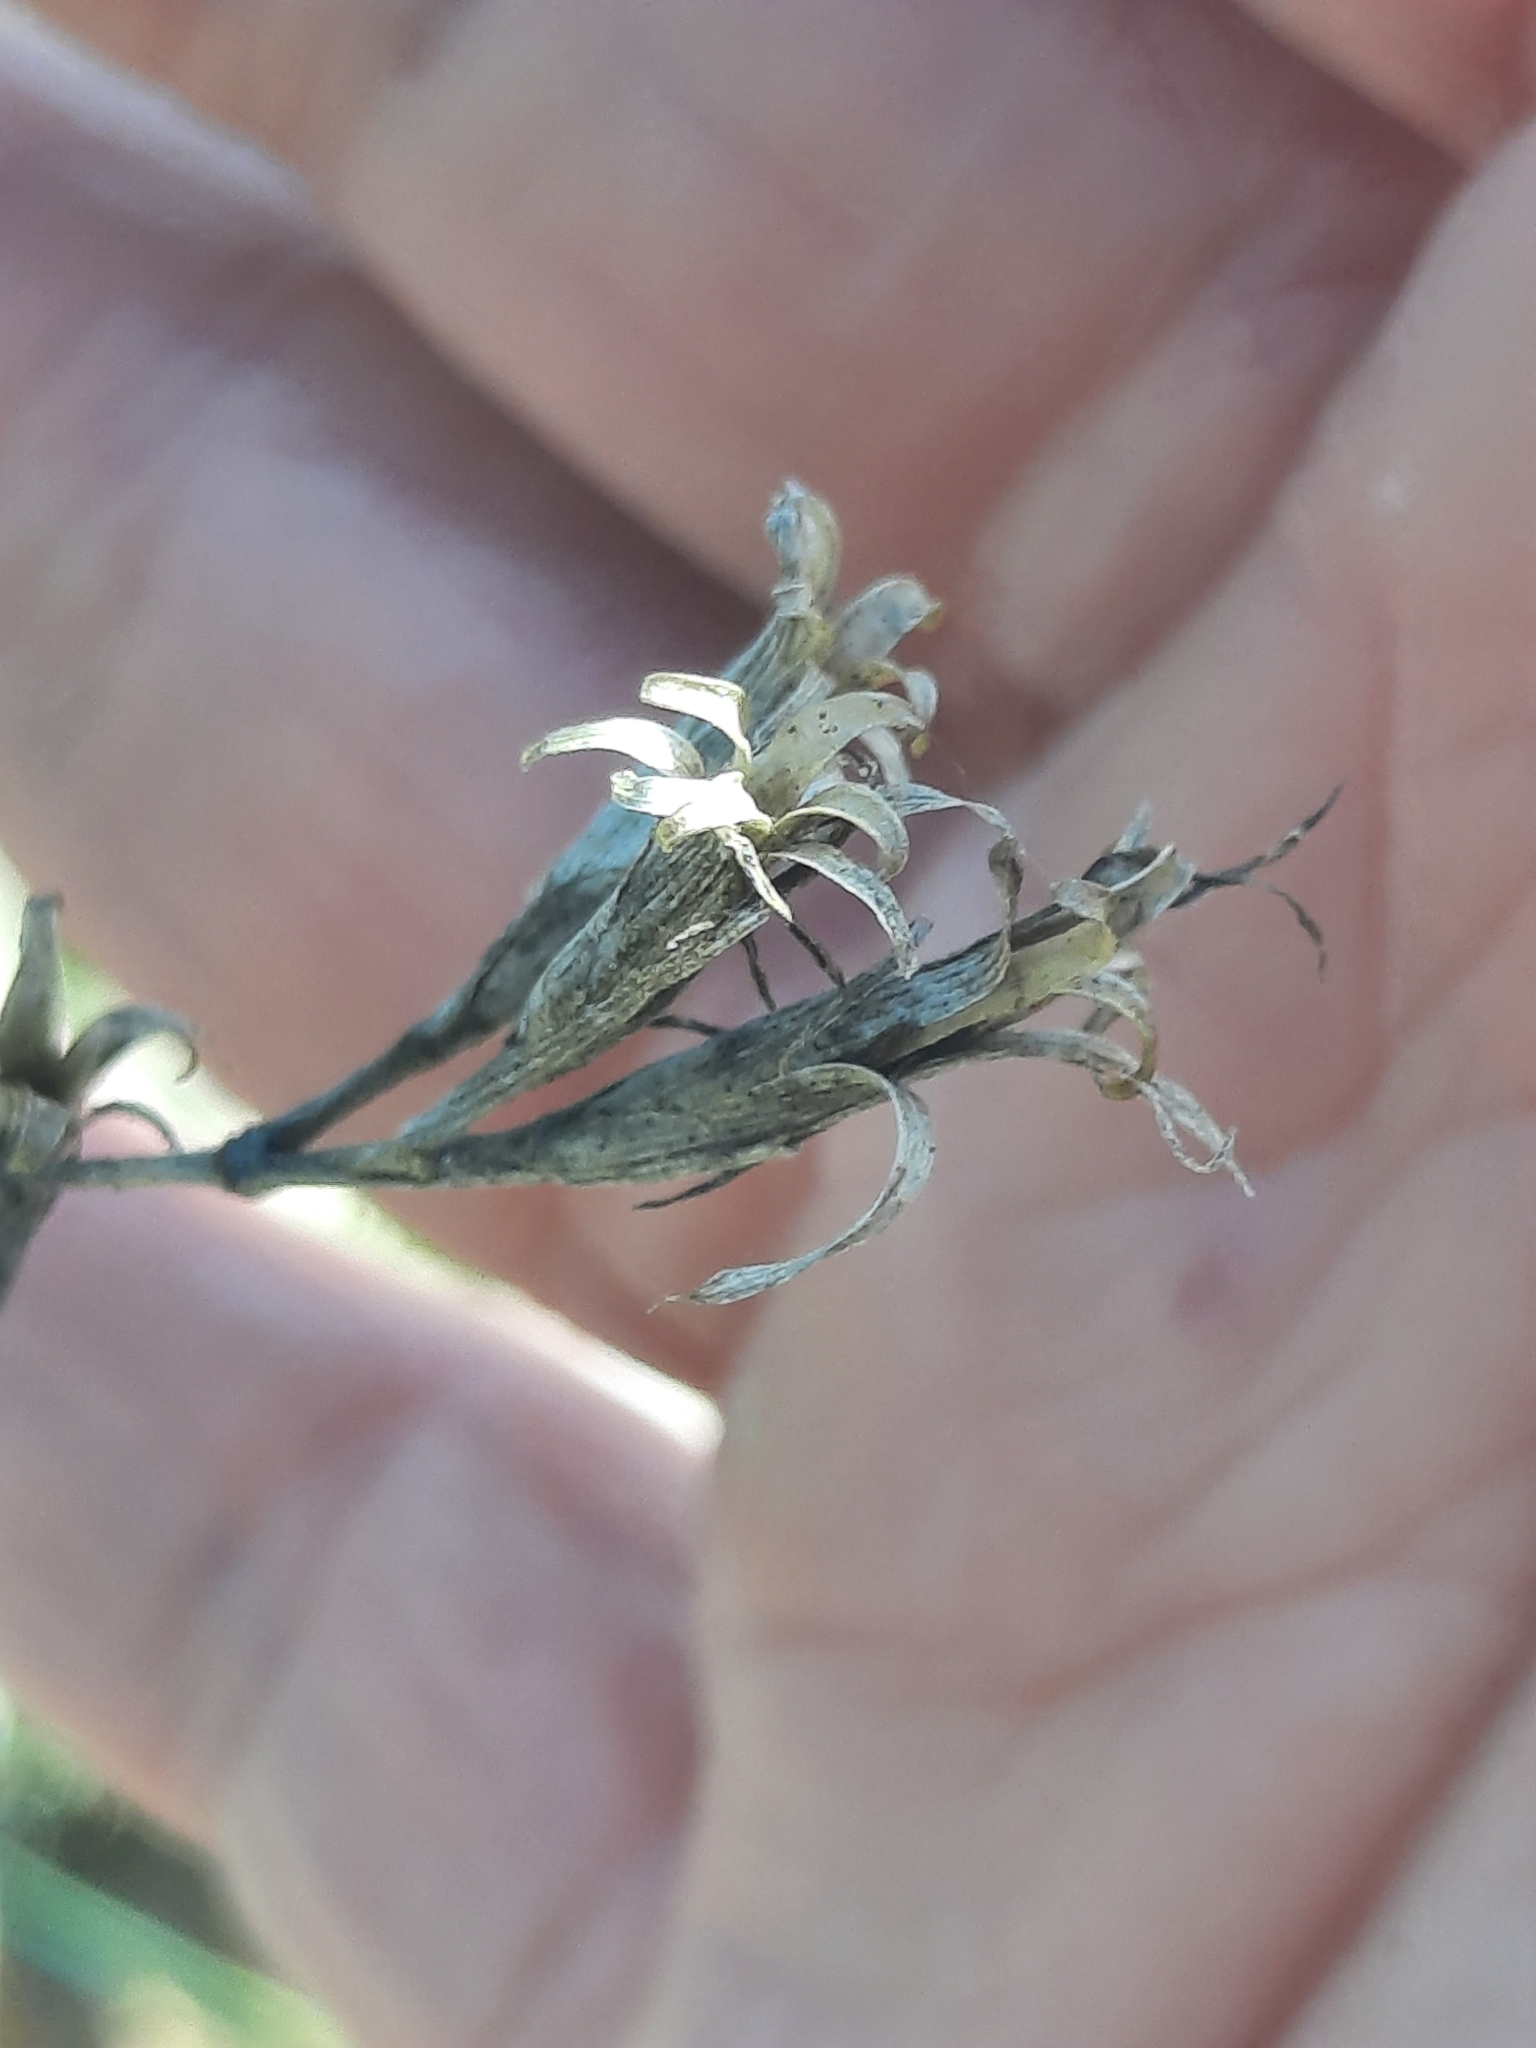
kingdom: Plantae
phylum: Tracheophyta
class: Magnoliopsida
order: Caryophyllales
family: Caryophyllaceae
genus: Dianthus
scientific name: Dianthus armeria
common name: Deptford pink
